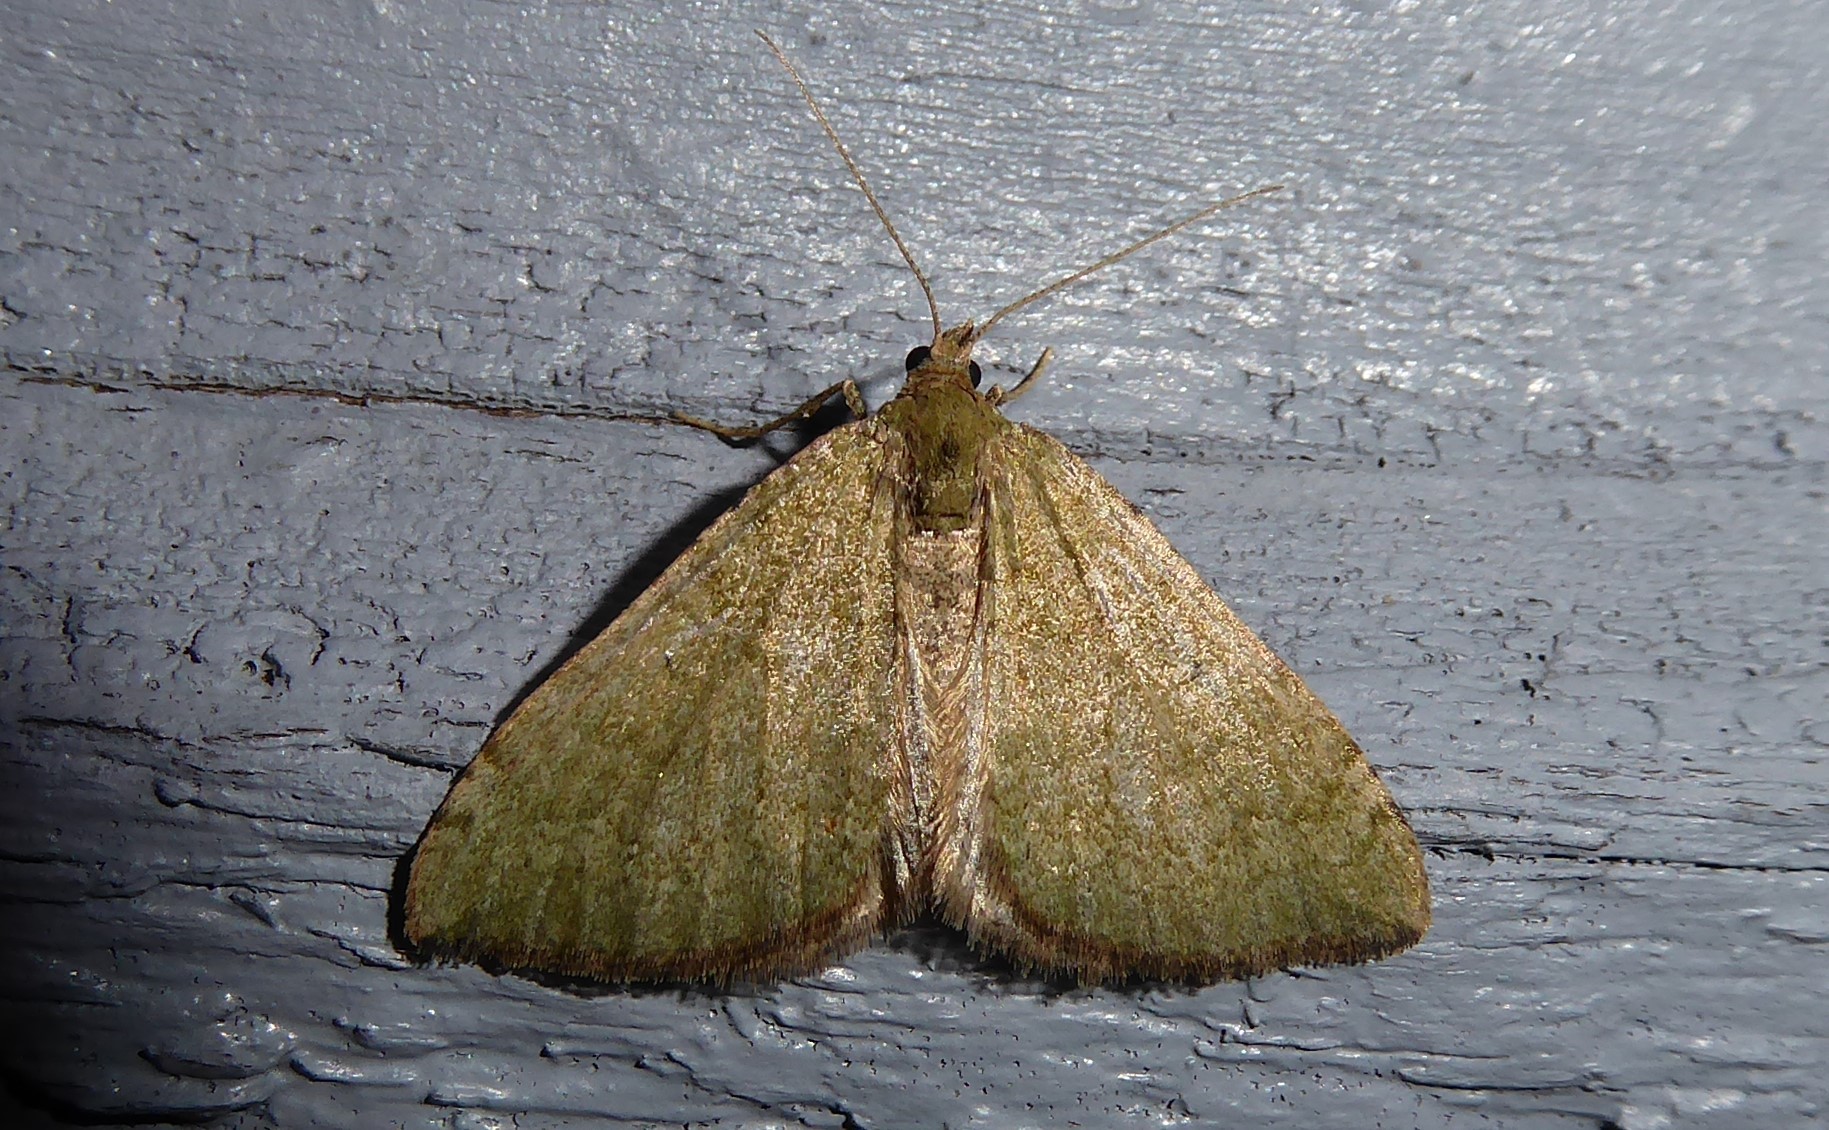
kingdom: Animalia
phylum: Arthropoda
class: Insecta
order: Lepidoptera
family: Geometridae
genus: Epyaxa
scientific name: Epyaxa rosearia
